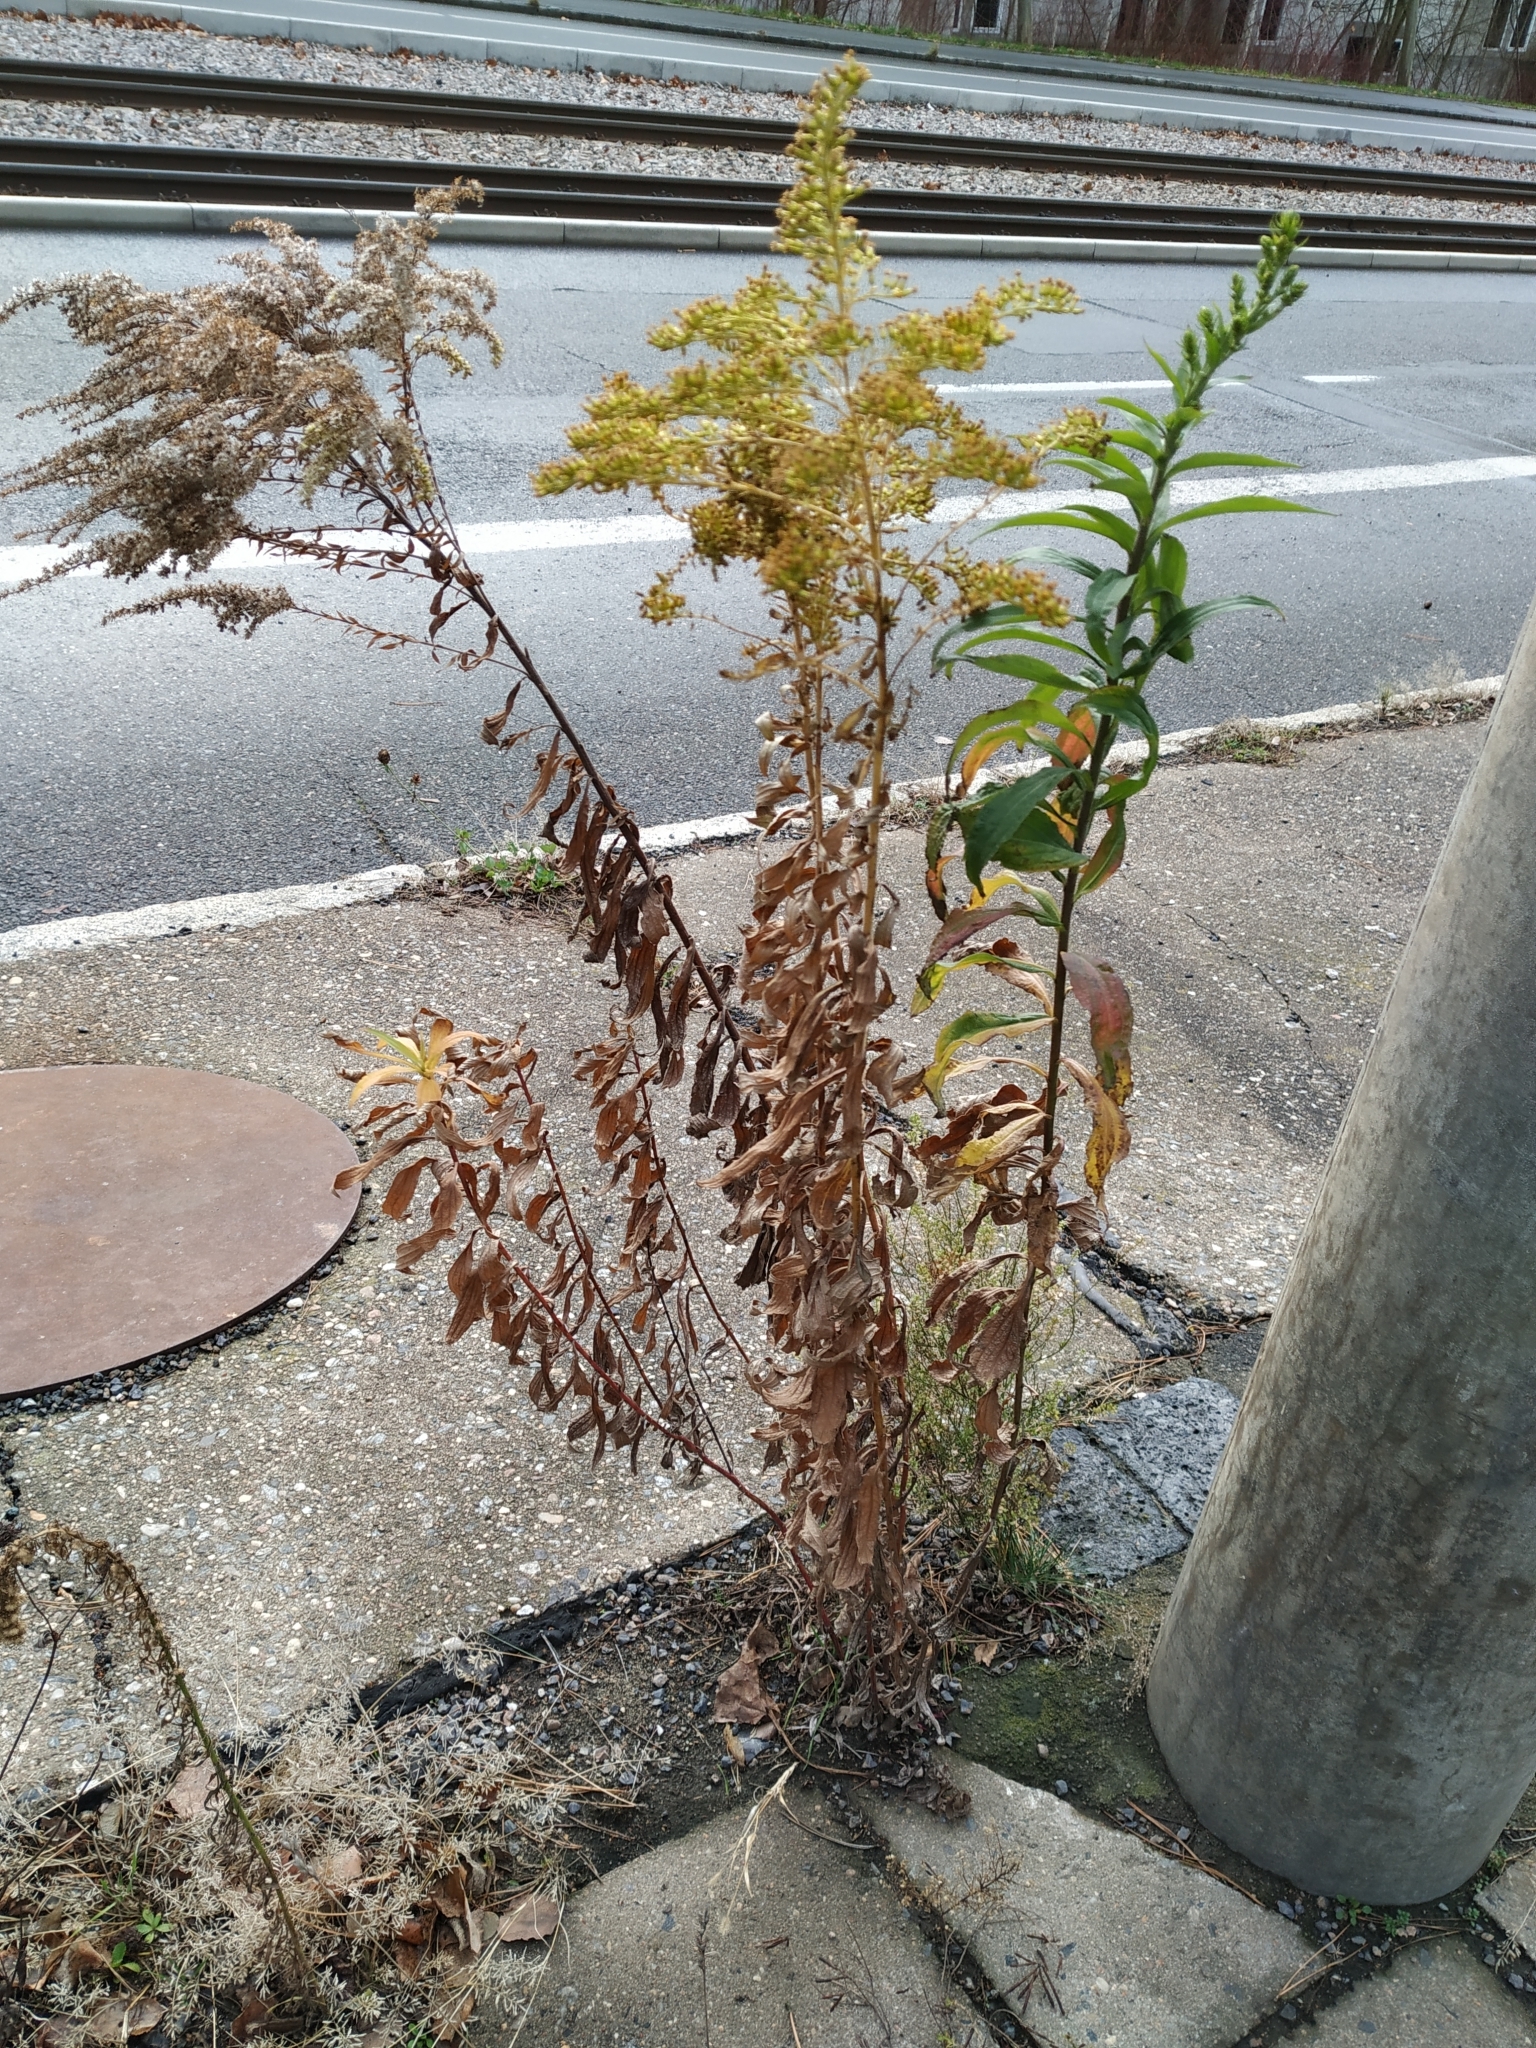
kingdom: Plantae
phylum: Tracheophyta
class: Magnoliopsida
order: Asterales
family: Asteraceae
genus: Solidago
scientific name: Solidago canadensis
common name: Canada goldenrod
